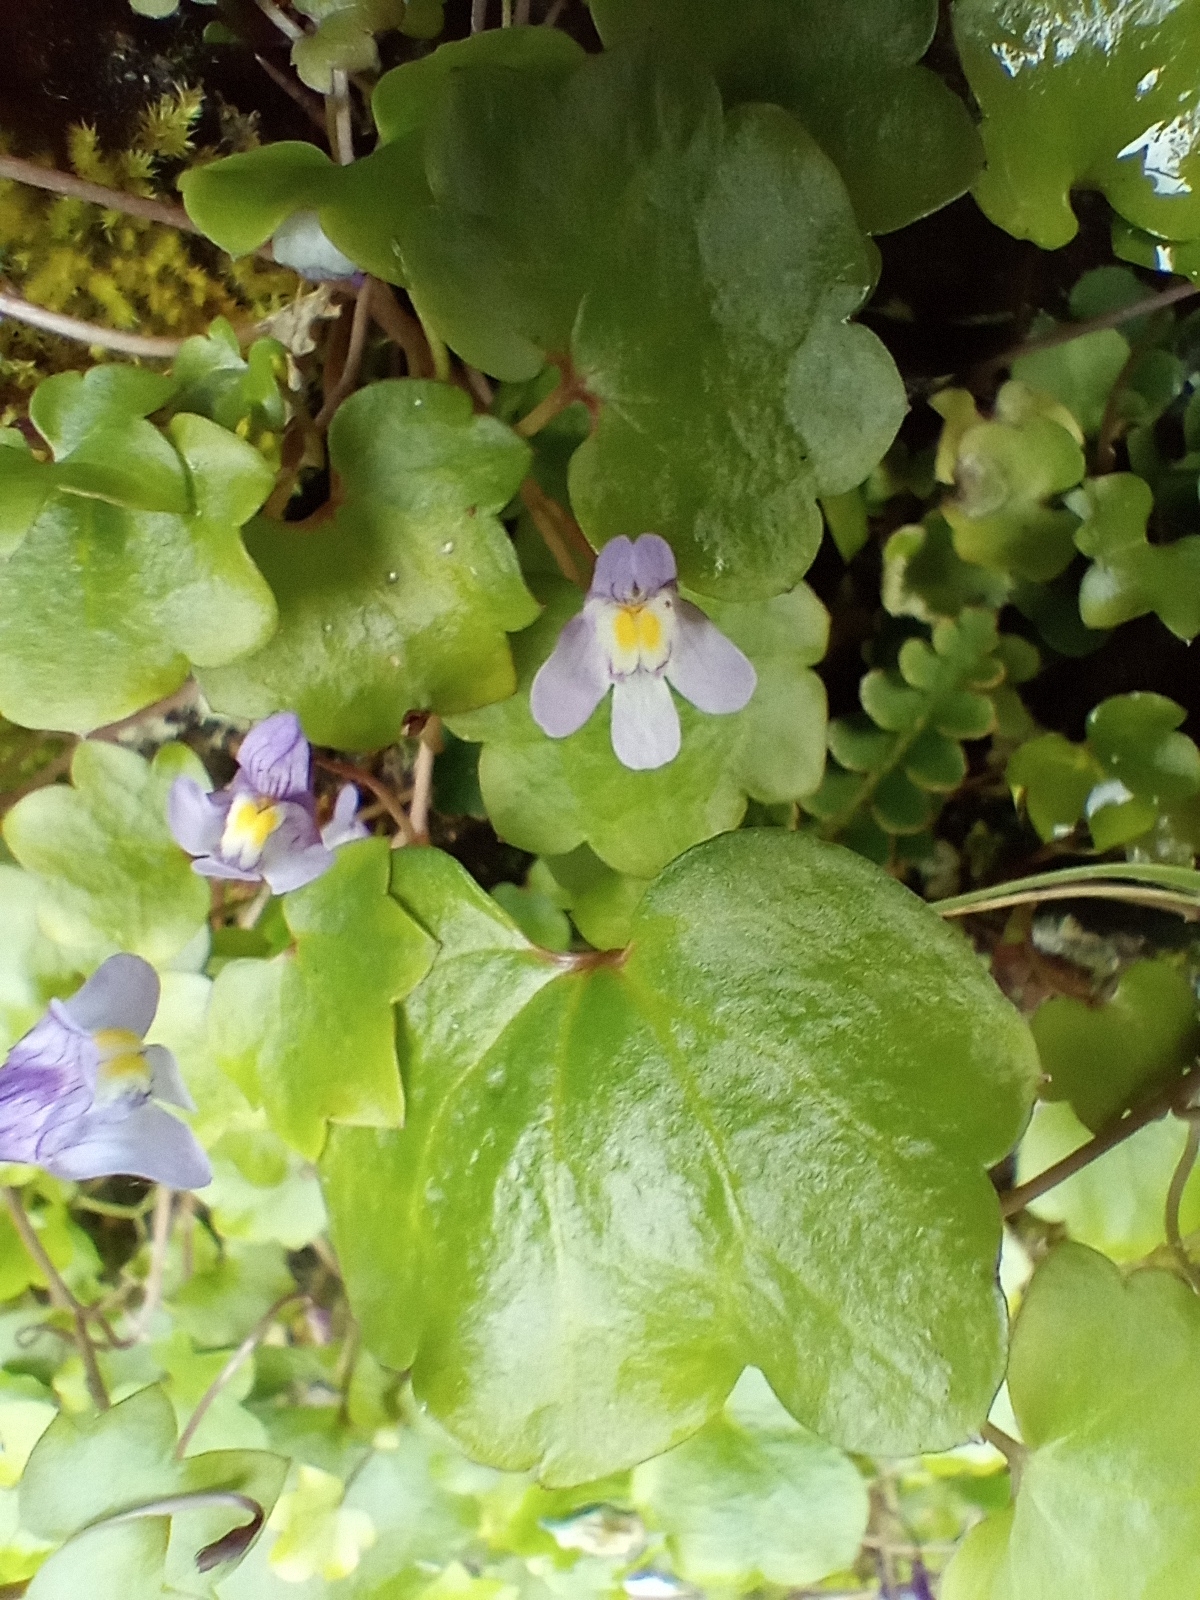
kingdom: Plantae
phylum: Tracheophyta
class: Magnoliopsida
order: Lamiales
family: Plantaginaceae
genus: Cymbalaria
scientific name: Cymbalaria muralis
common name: Ivy-leaved toadflax
